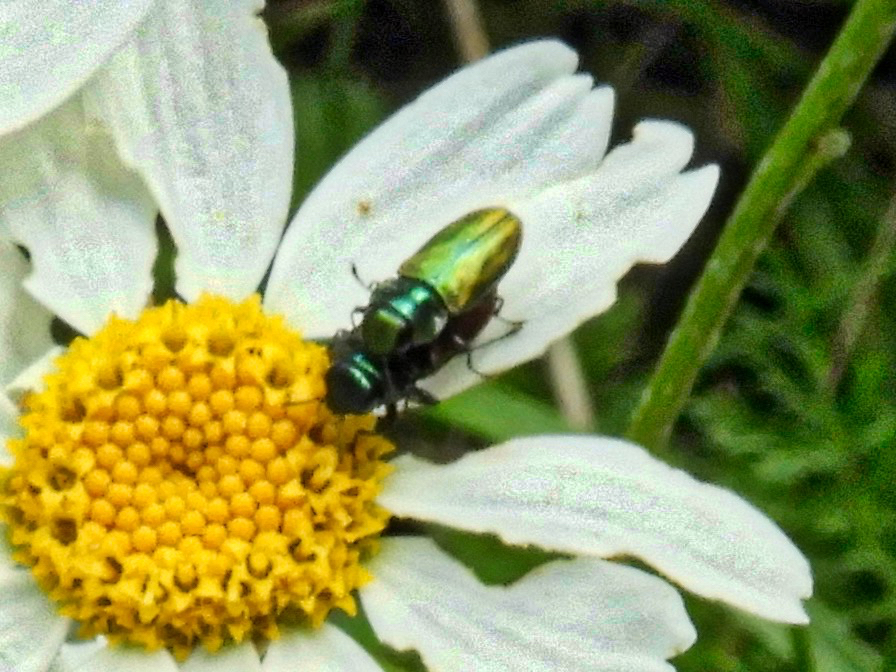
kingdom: Animalia
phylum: Arthropoda
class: Insecta
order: Coleoptera
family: Buprestidae
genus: Anthaxia
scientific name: Anthaxia thalassophila
